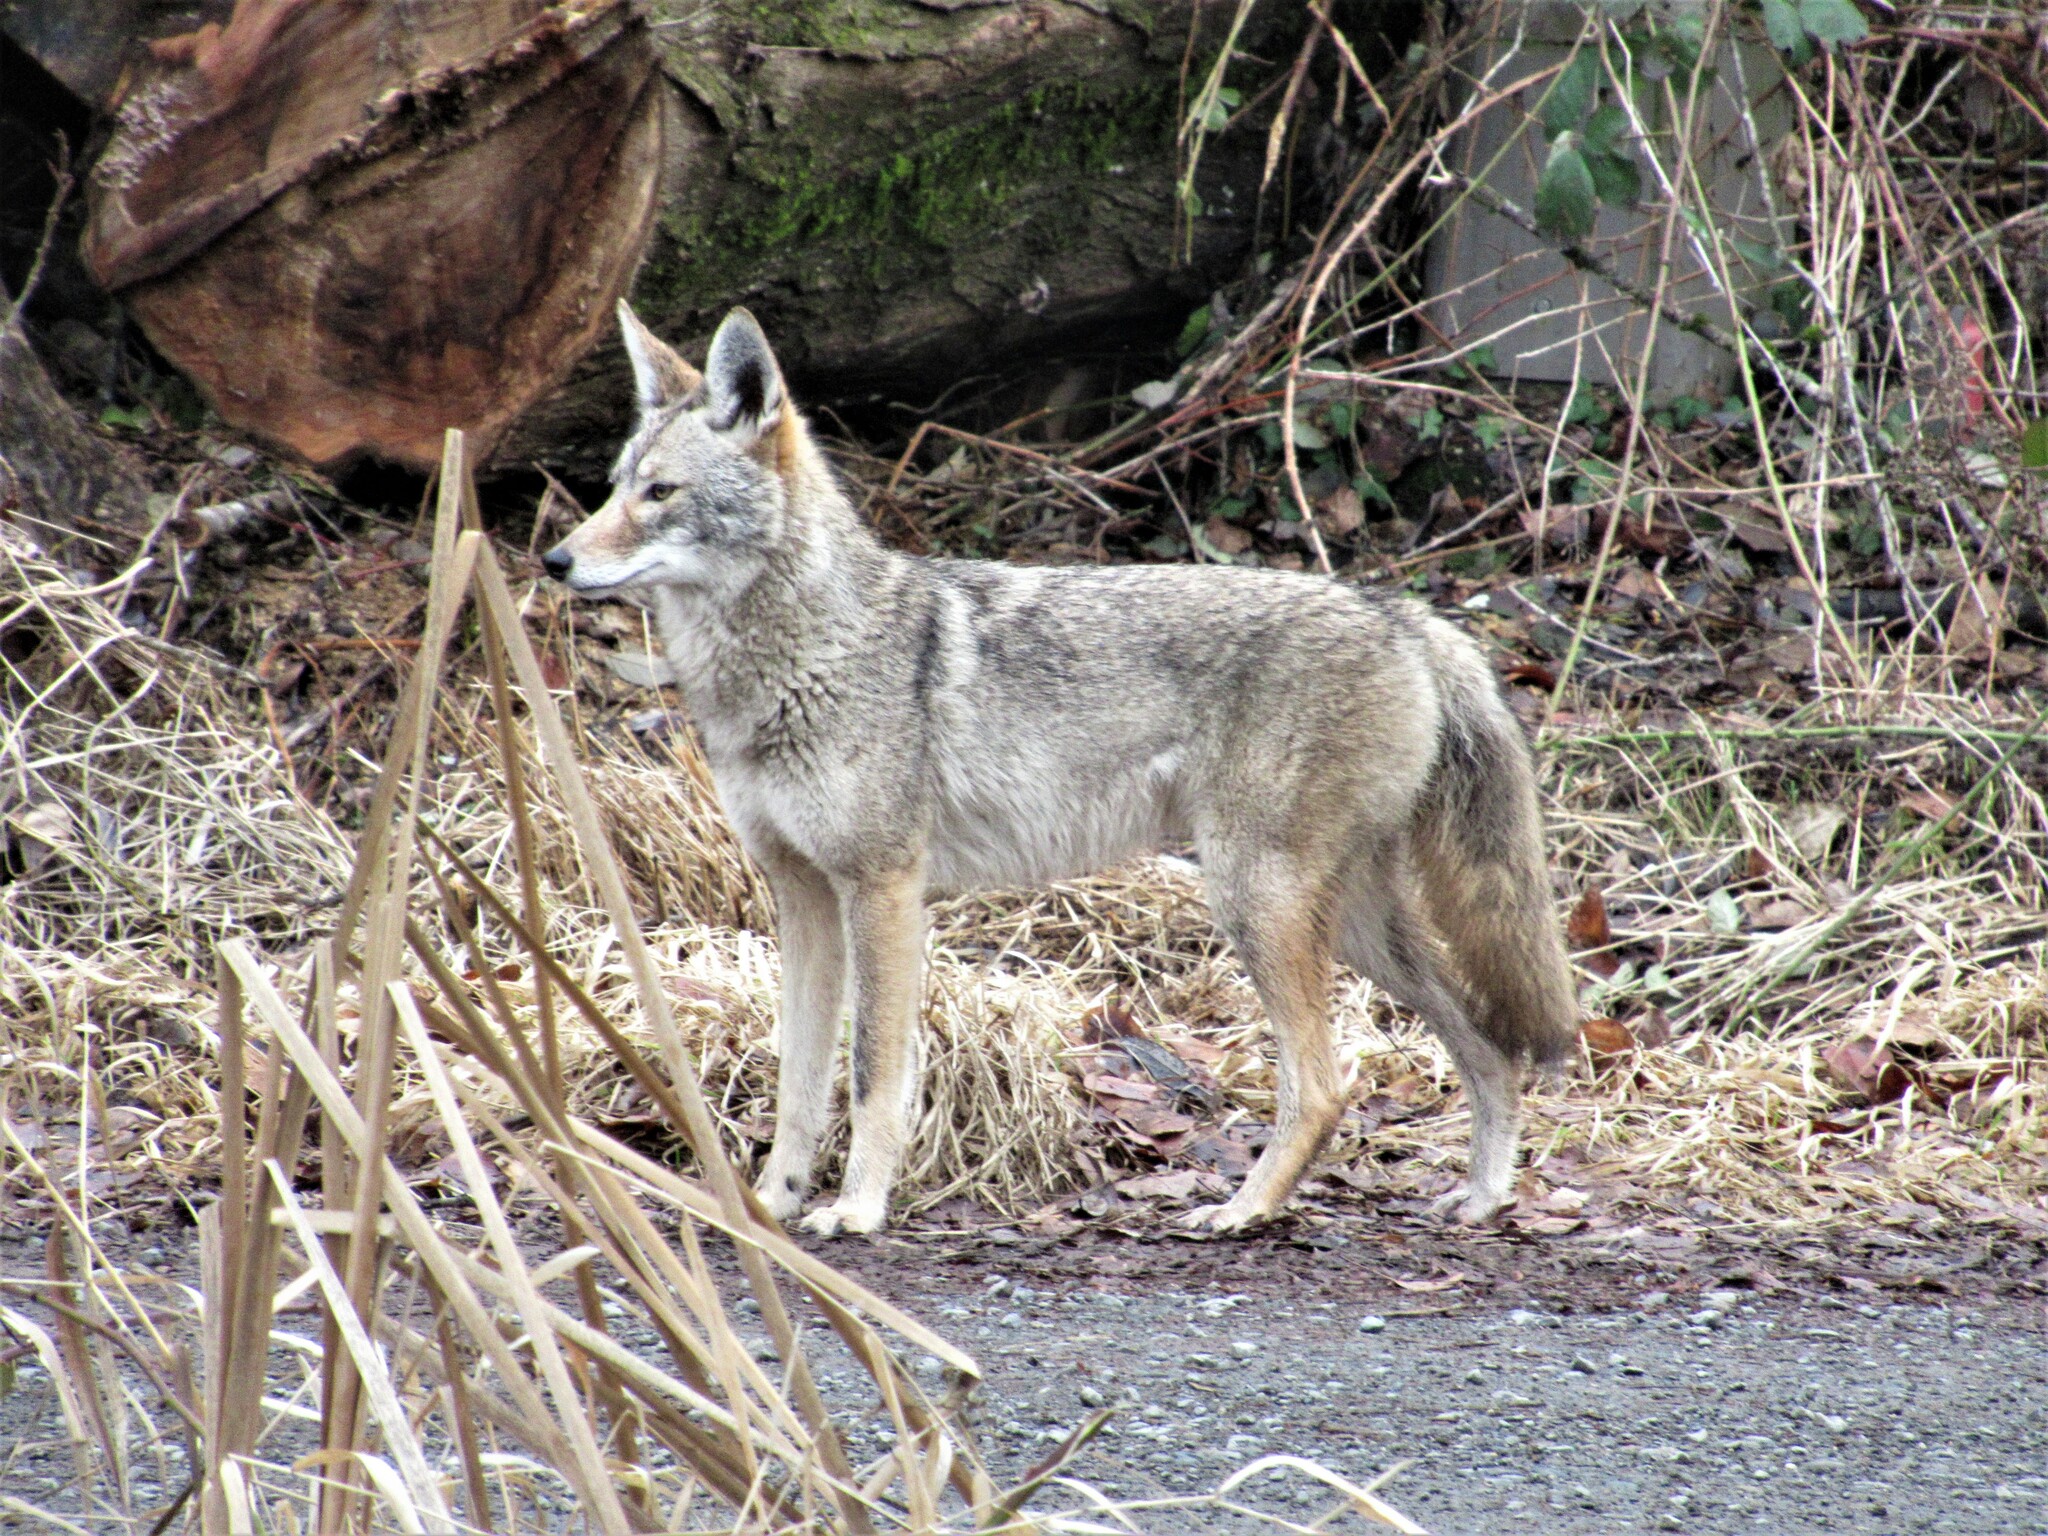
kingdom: Animalia
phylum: Chordata
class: Mammalia
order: Carnivora
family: Canidae
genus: Canis
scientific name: Canis latrans
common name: Coyote
